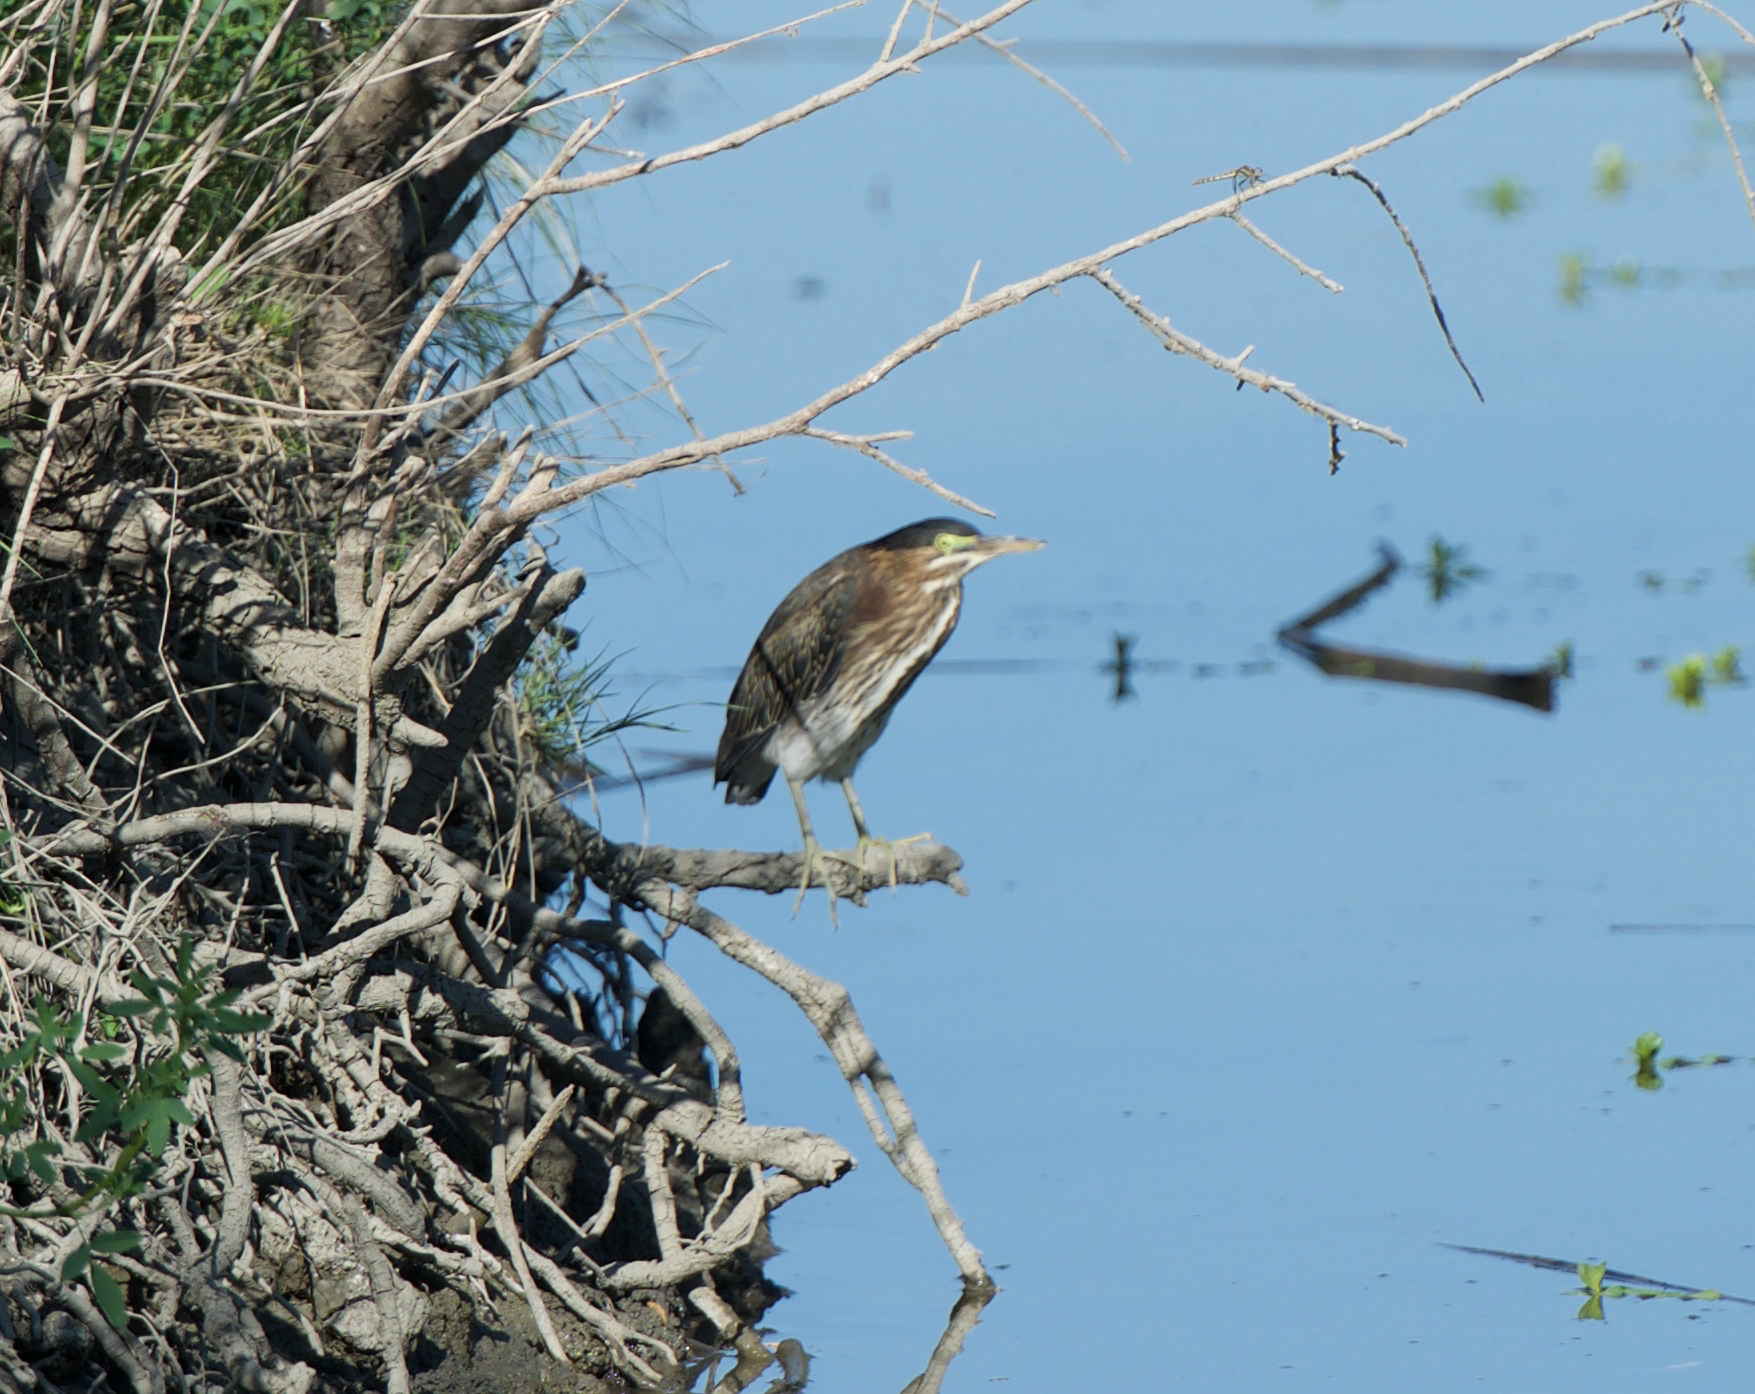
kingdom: Animalia
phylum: Chordata
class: Aves
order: Pelecaniformes
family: Ardeidae
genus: Butorides
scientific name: Butorides virescens
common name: Green heron
